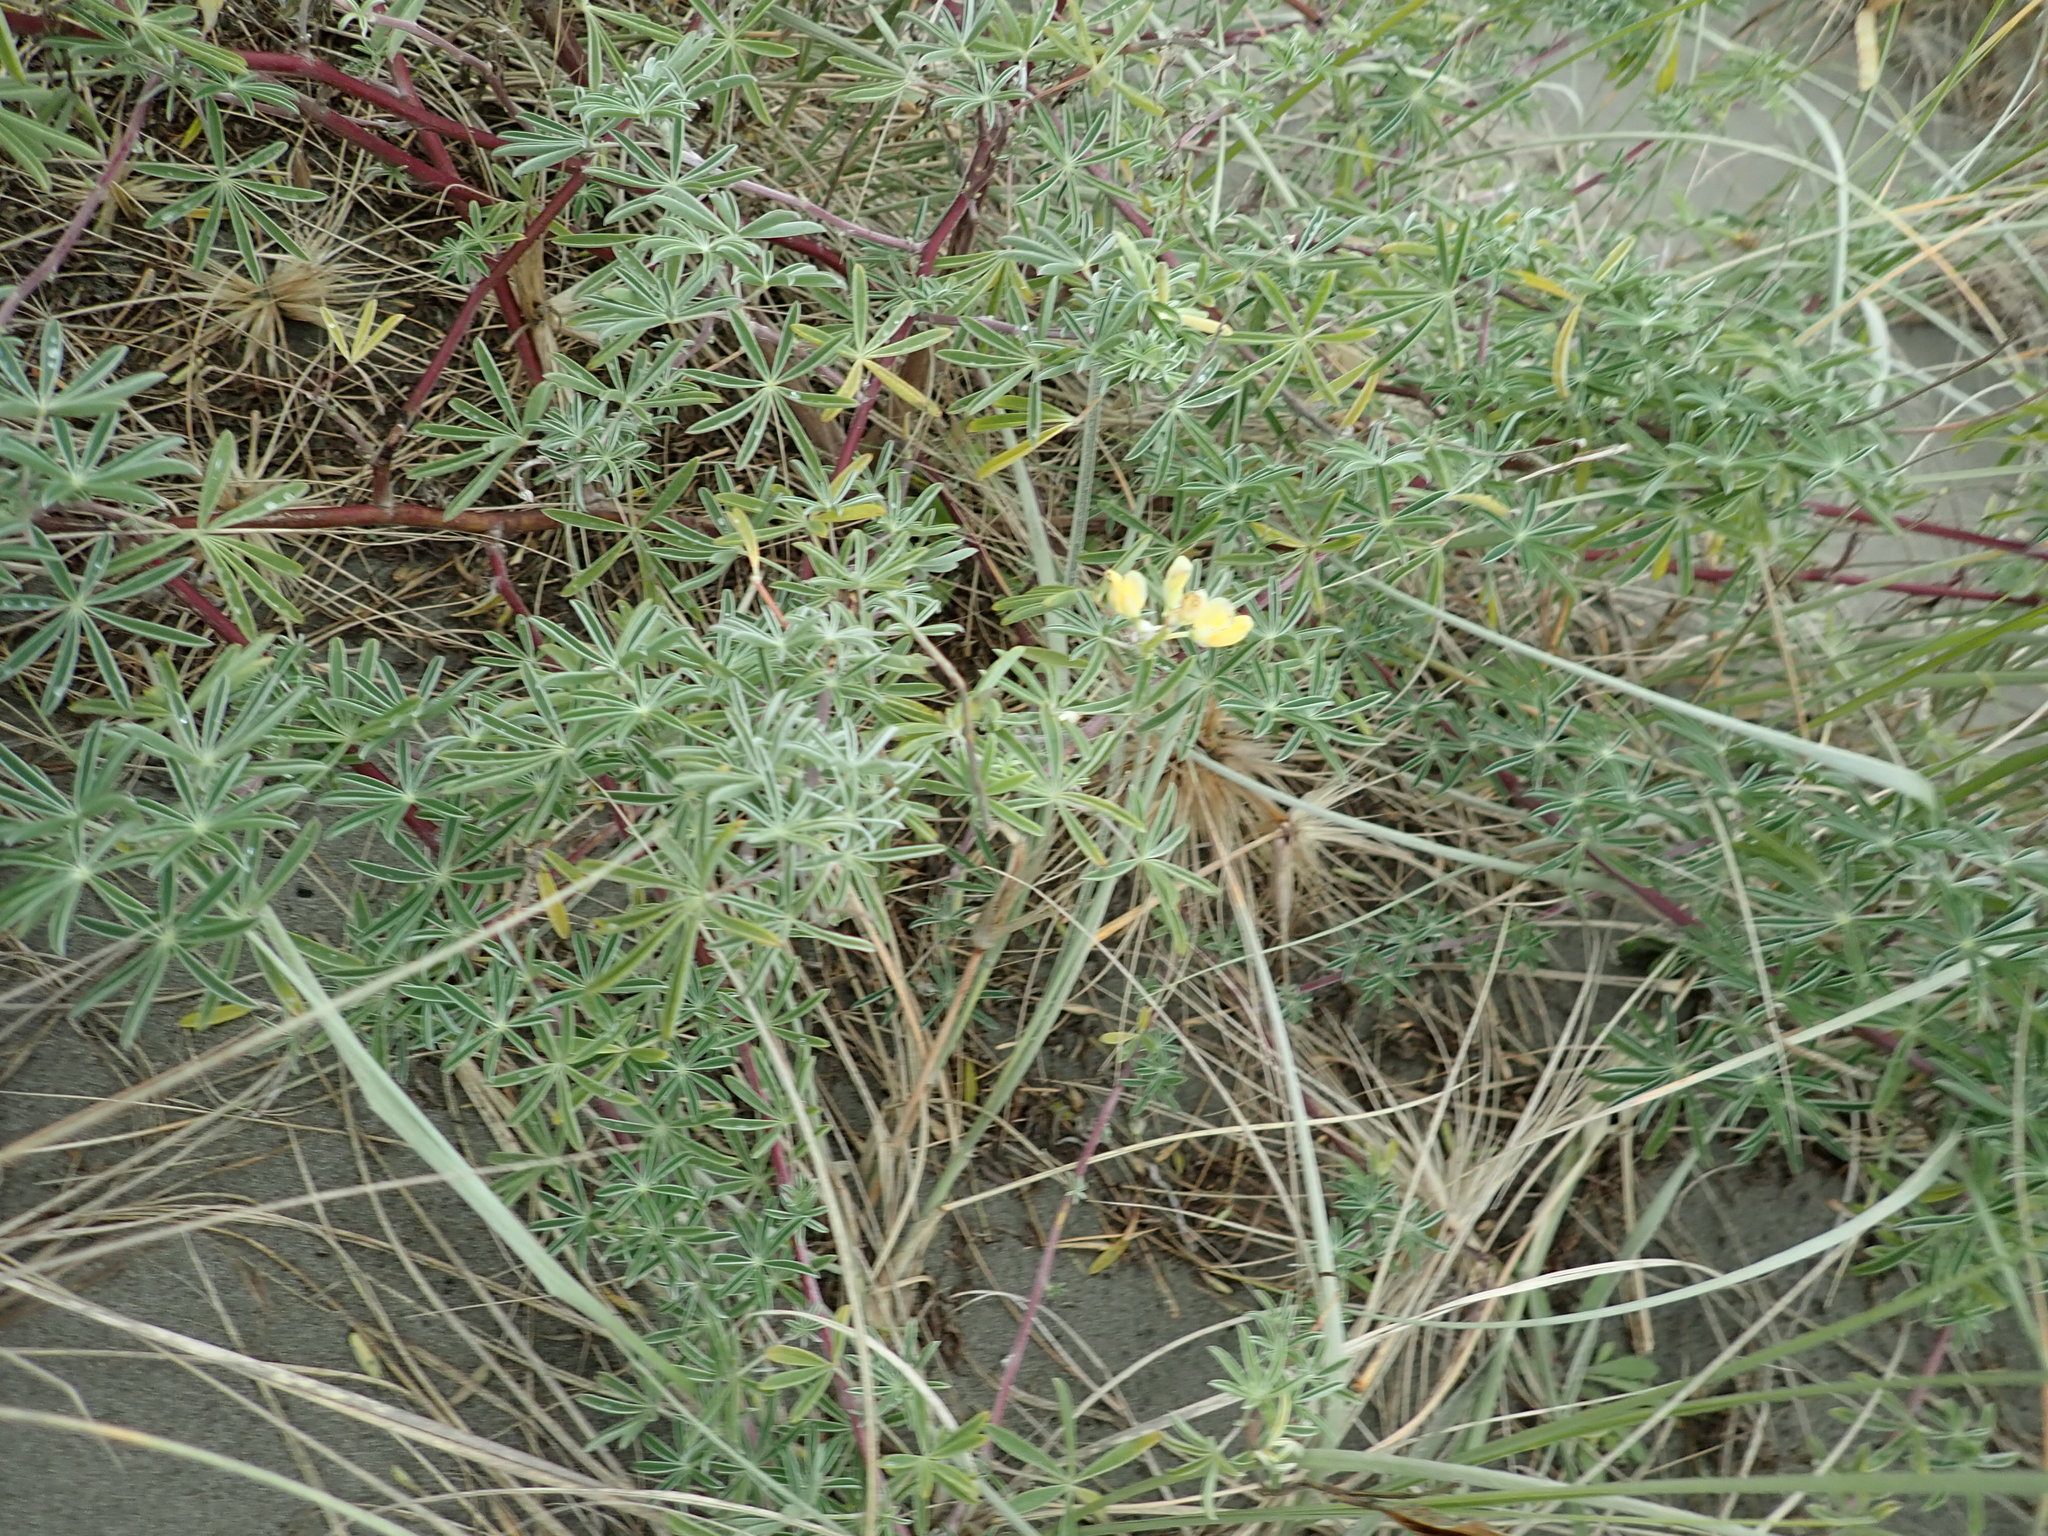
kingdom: Plantae
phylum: Tracheophyta
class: Magnoliopsida
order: Fabales
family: Fabaceae
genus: Lupinus
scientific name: Lupinus arboreus
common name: Yellow bush lupine
